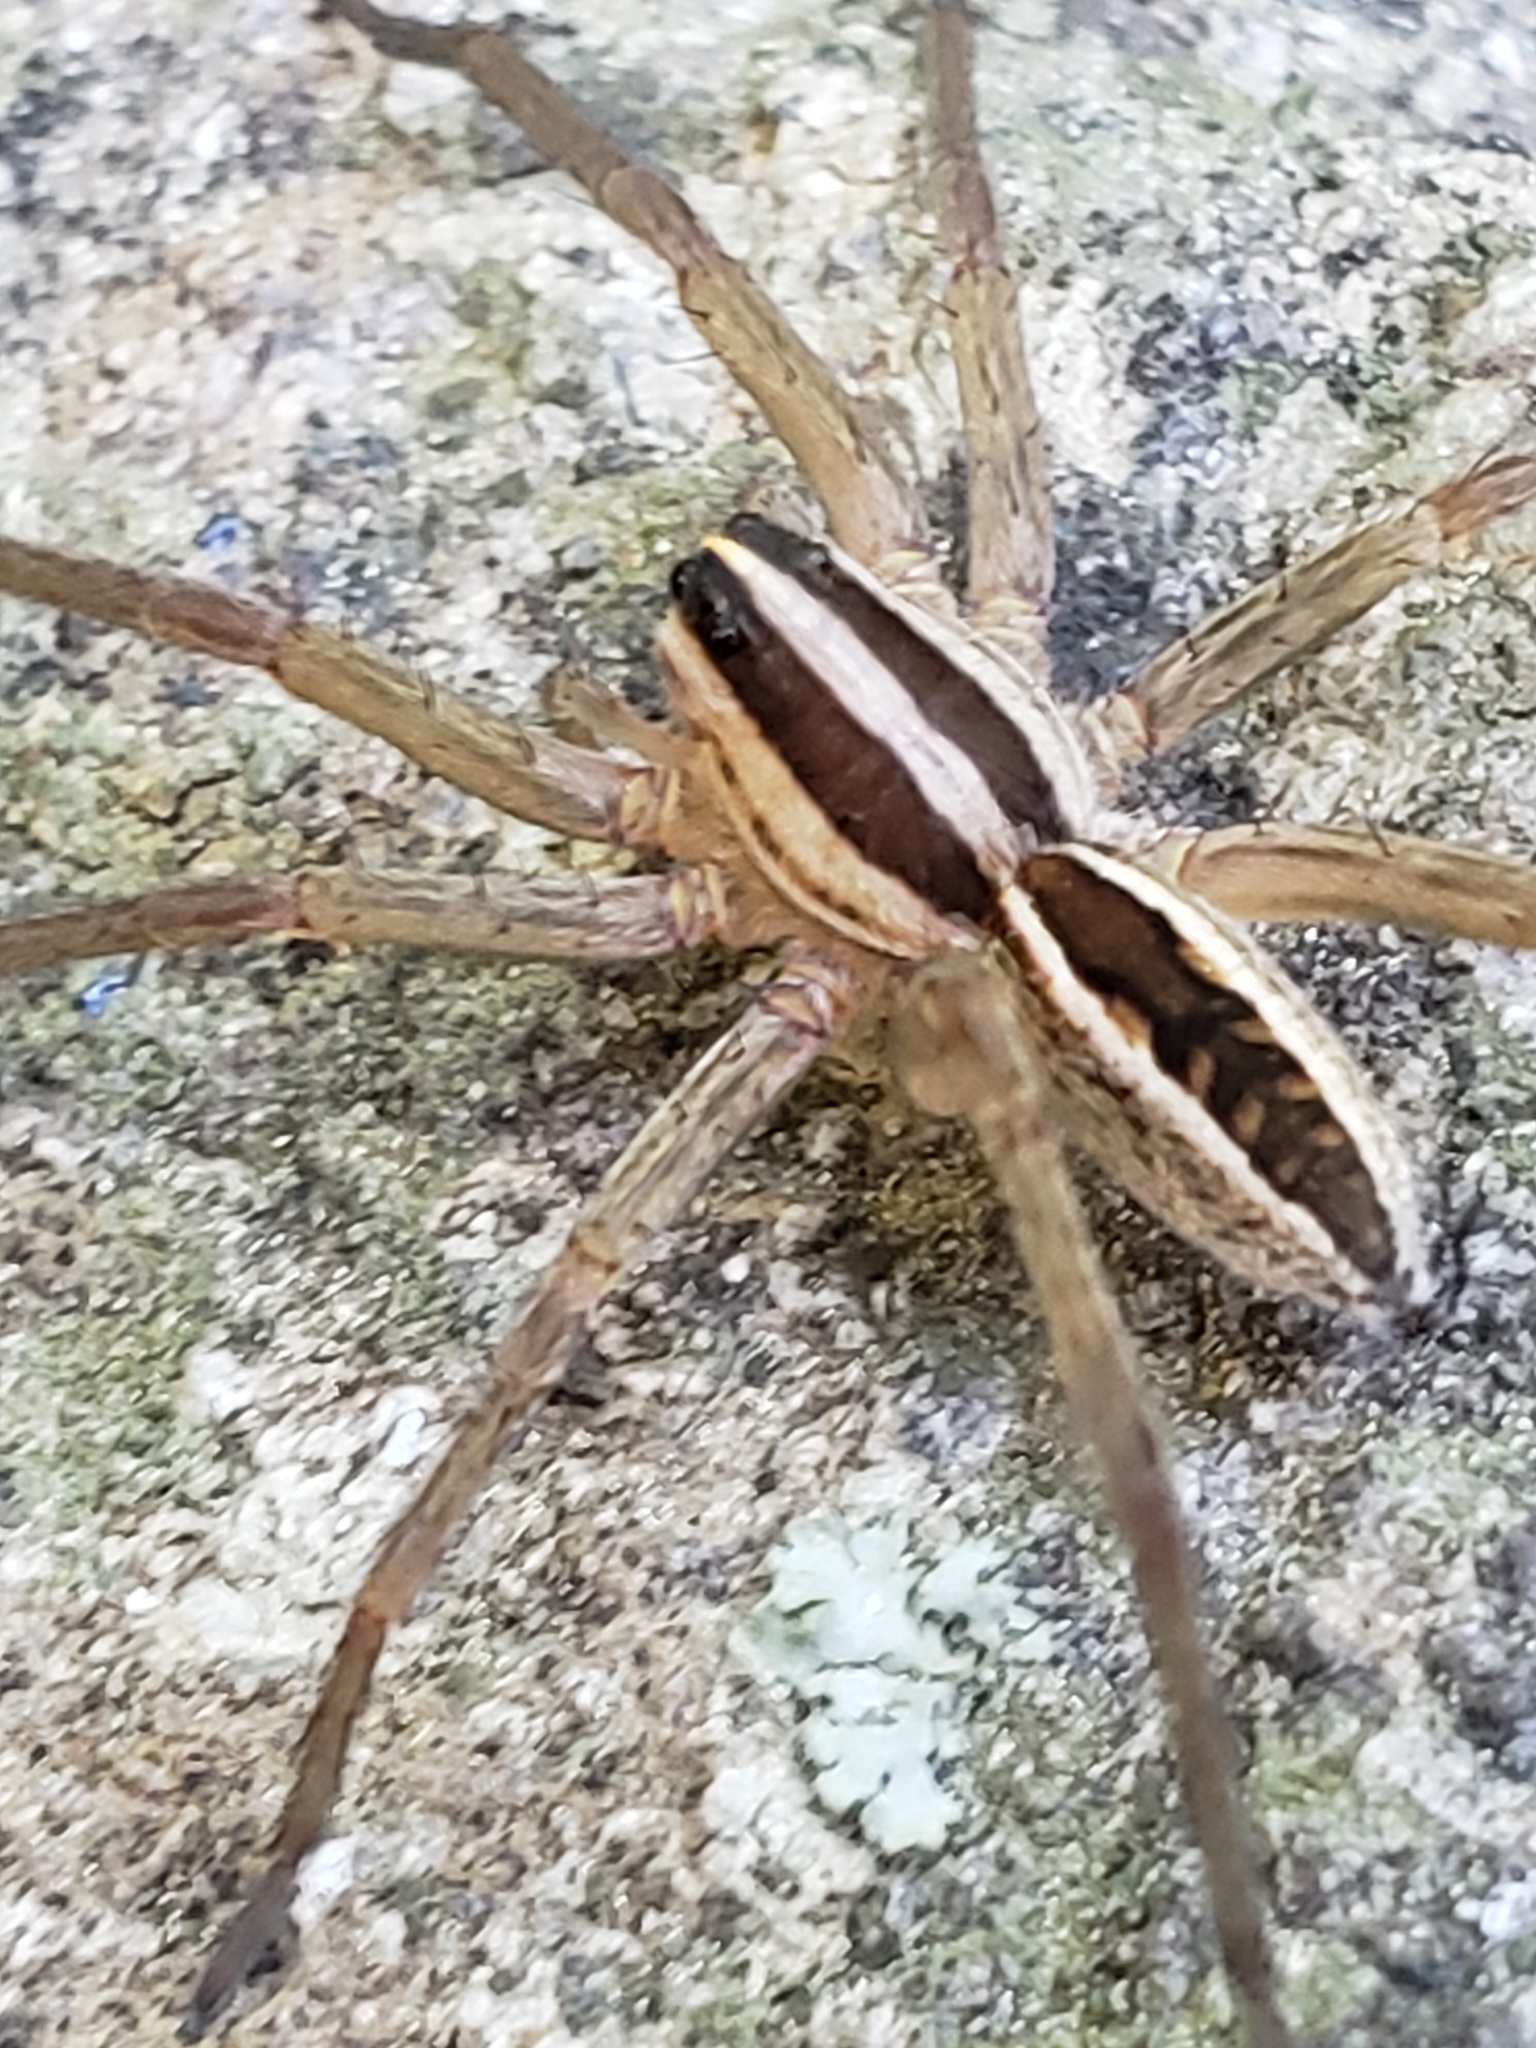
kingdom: Animalia
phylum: Arthropoda
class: Arachnida
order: Araneae
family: Lycosidae
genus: Rabidosa
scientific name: Rabidosa rabida
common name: Rabid wolf spider
